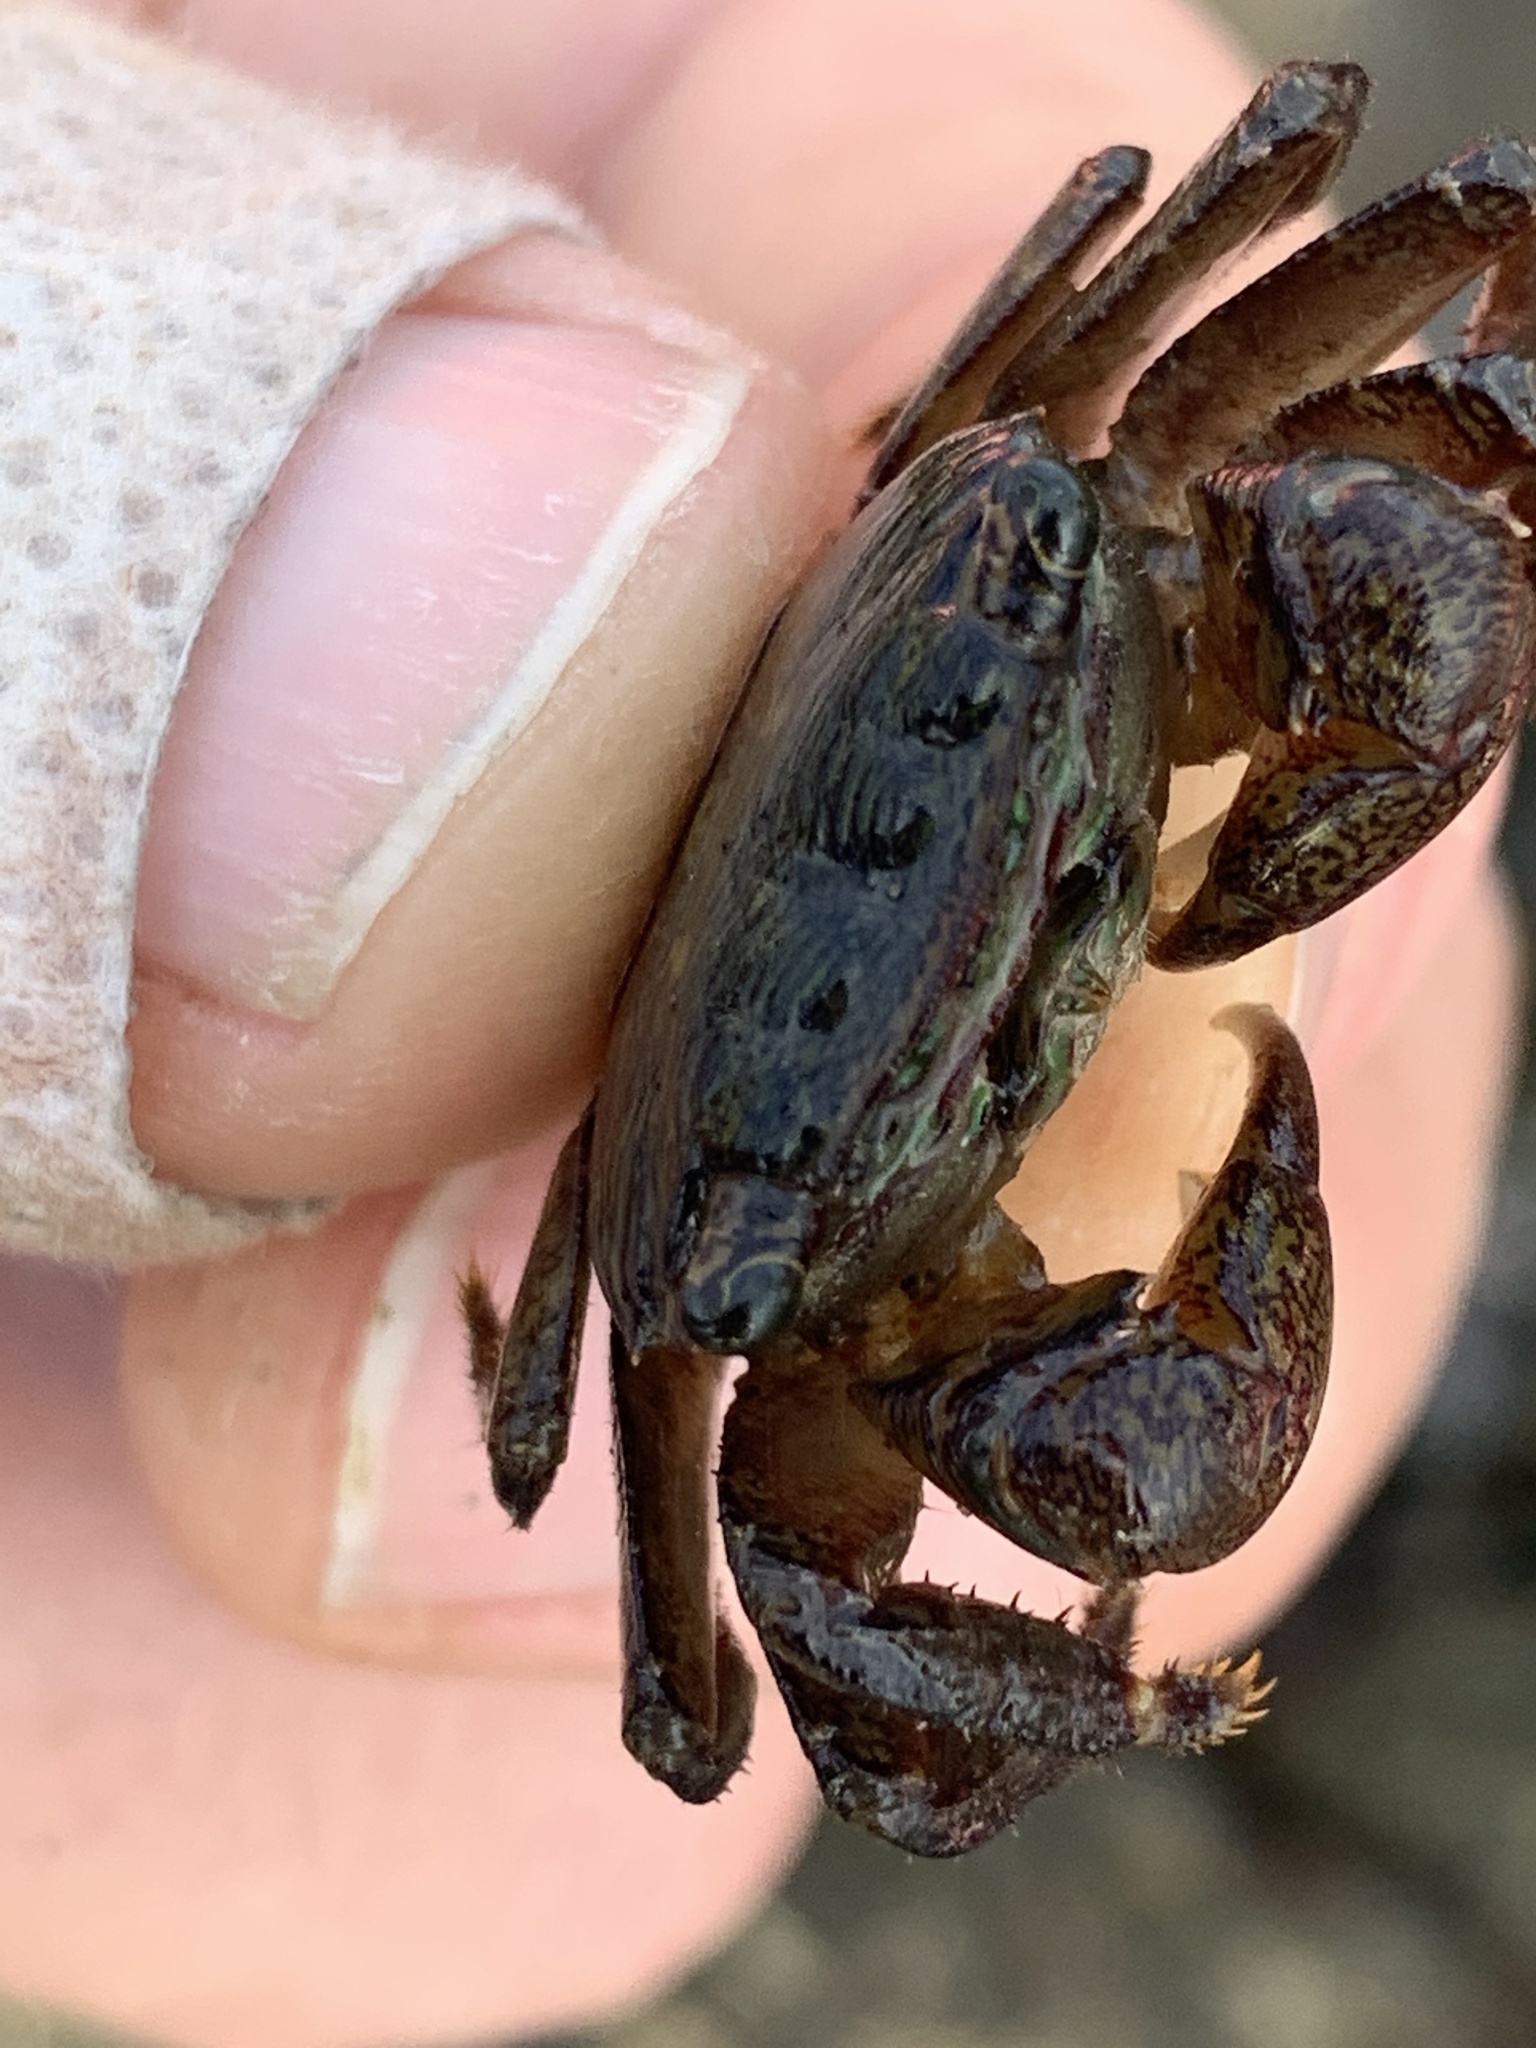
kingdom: Animalia
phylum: Arthropoda
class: Malacostraca
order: Decapoda
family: Grapsidae
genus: Pachygrapsus
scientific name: Pachygrapsus crassipes
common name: Striped shore crab
